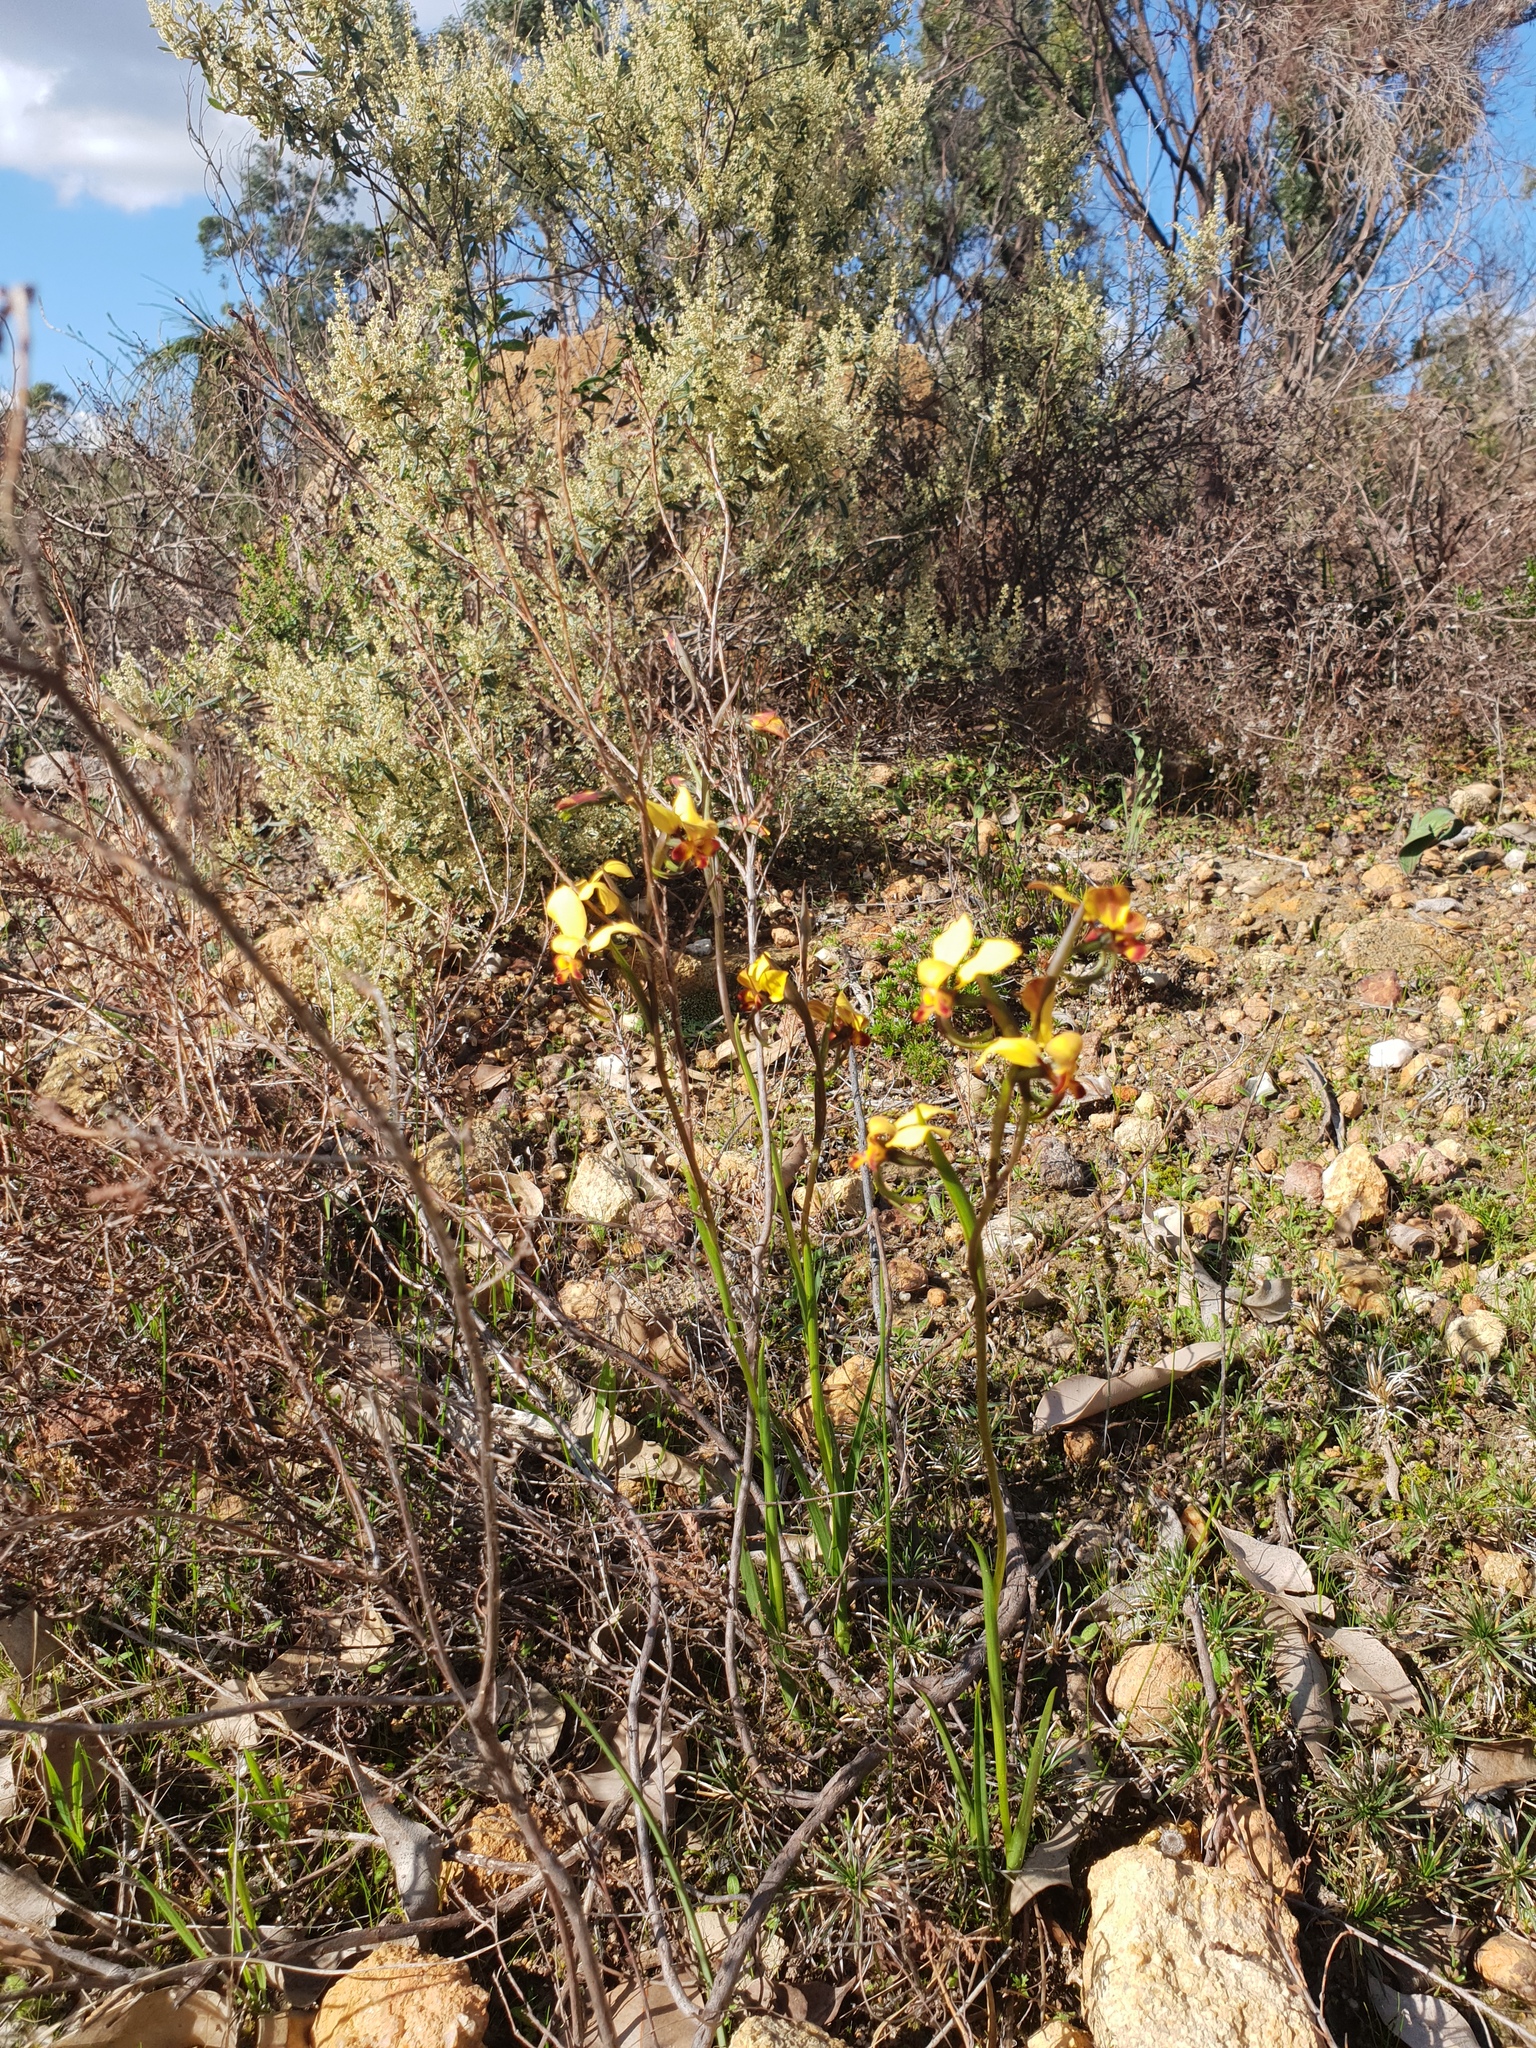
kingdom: Plantae
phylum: Tracheophyta
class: Liliopsida
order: Asparagales
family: Orchidaceae
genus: Diuris
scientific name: Diuris brumalis
